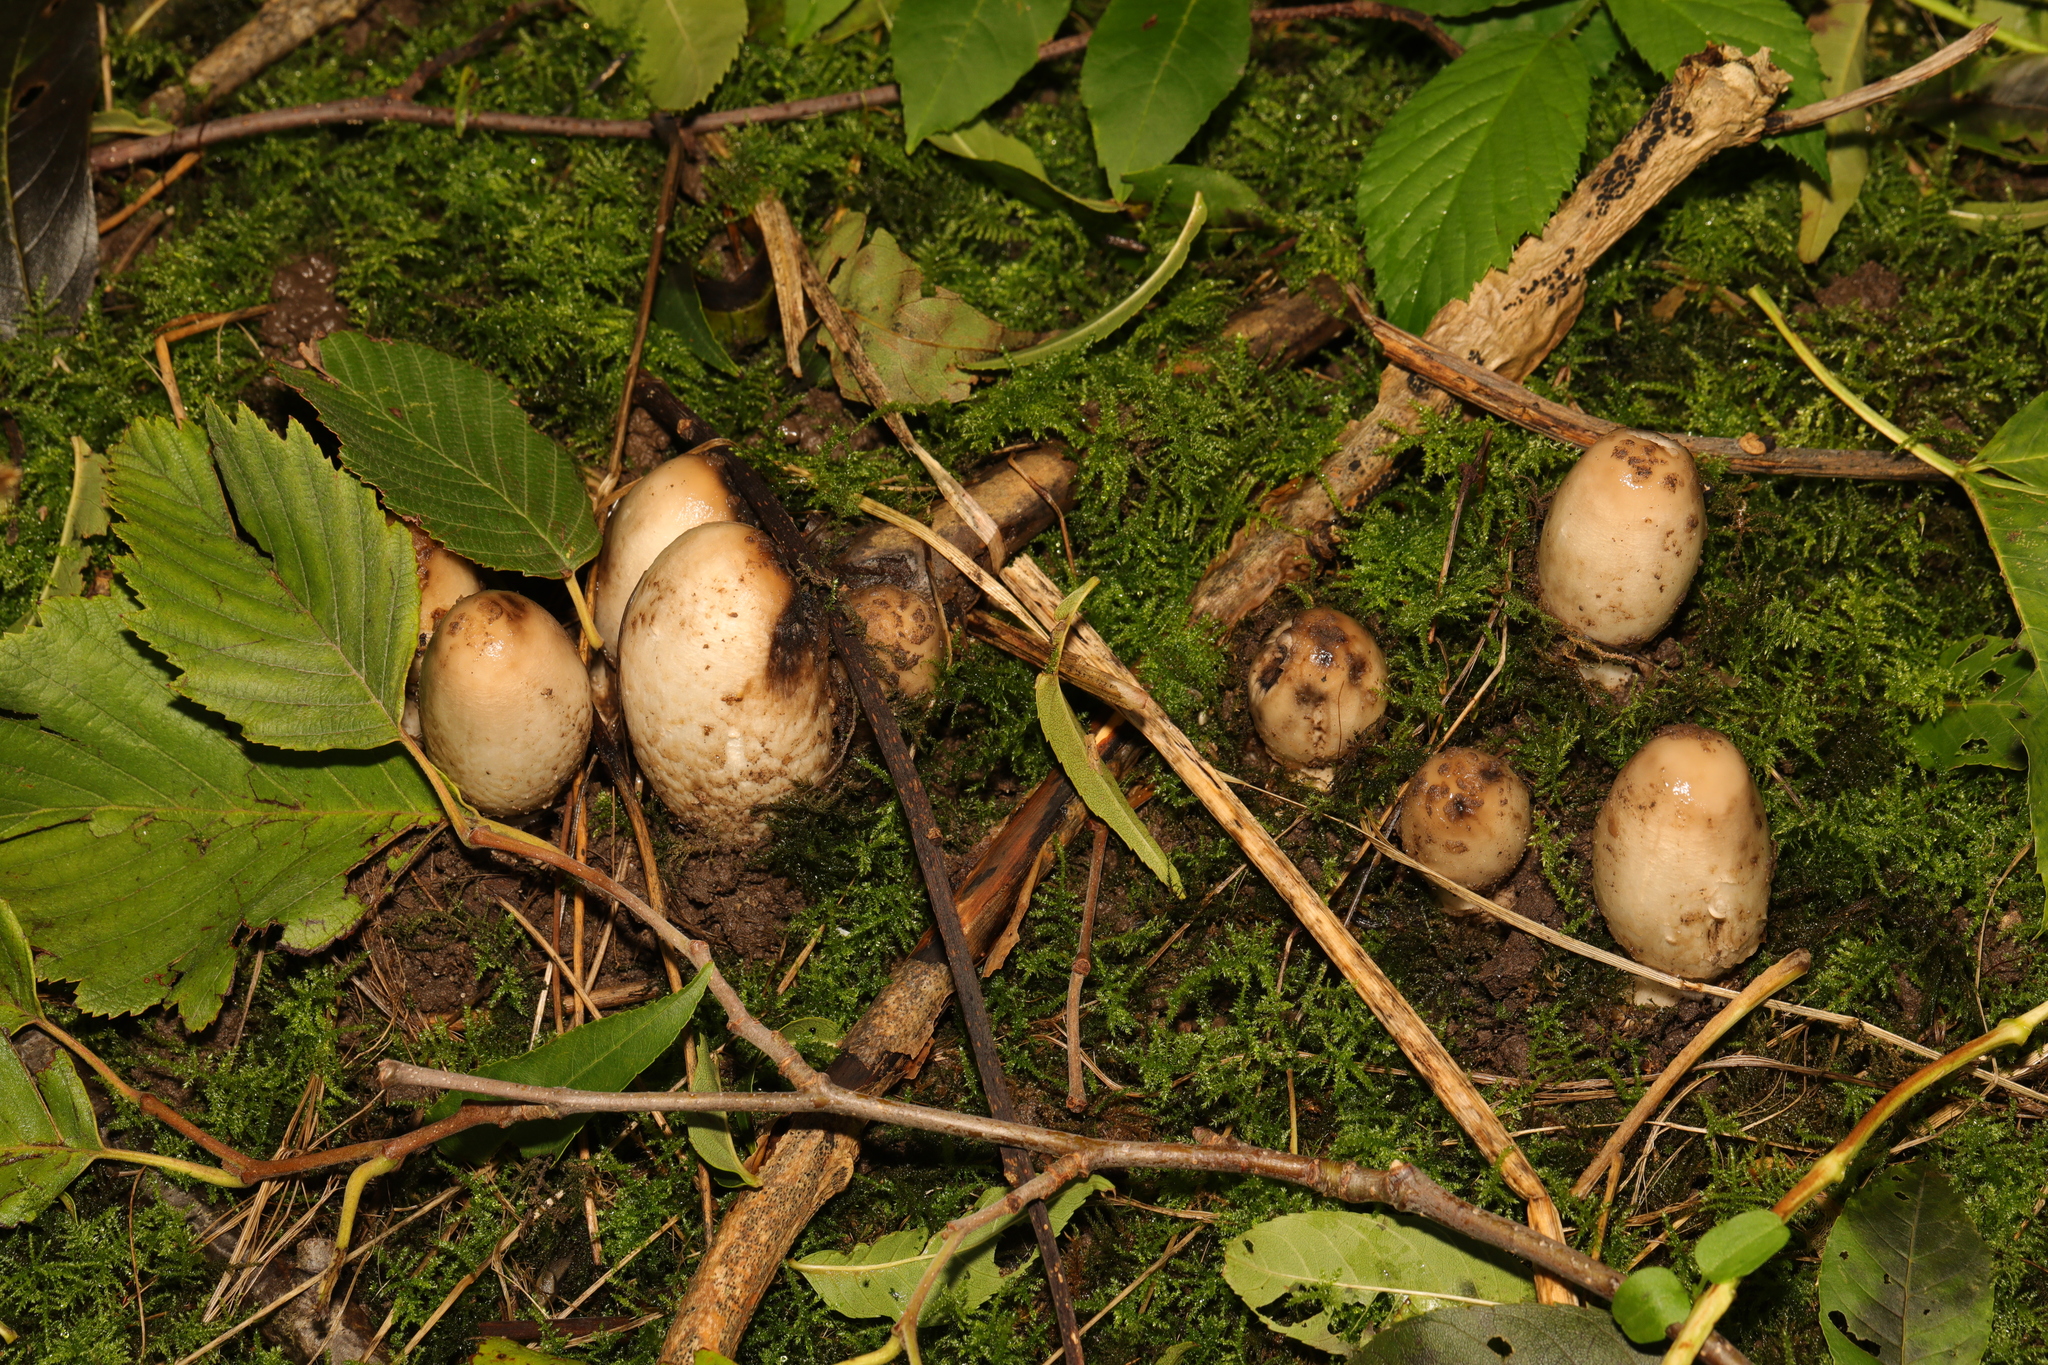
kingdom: Fungi
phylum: Basidiomycota
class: Agaricomycetes
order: Agaricales
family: Agaricaceae
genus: Coprinus
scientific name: Coprinus comatus
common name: Lawyer's wig
